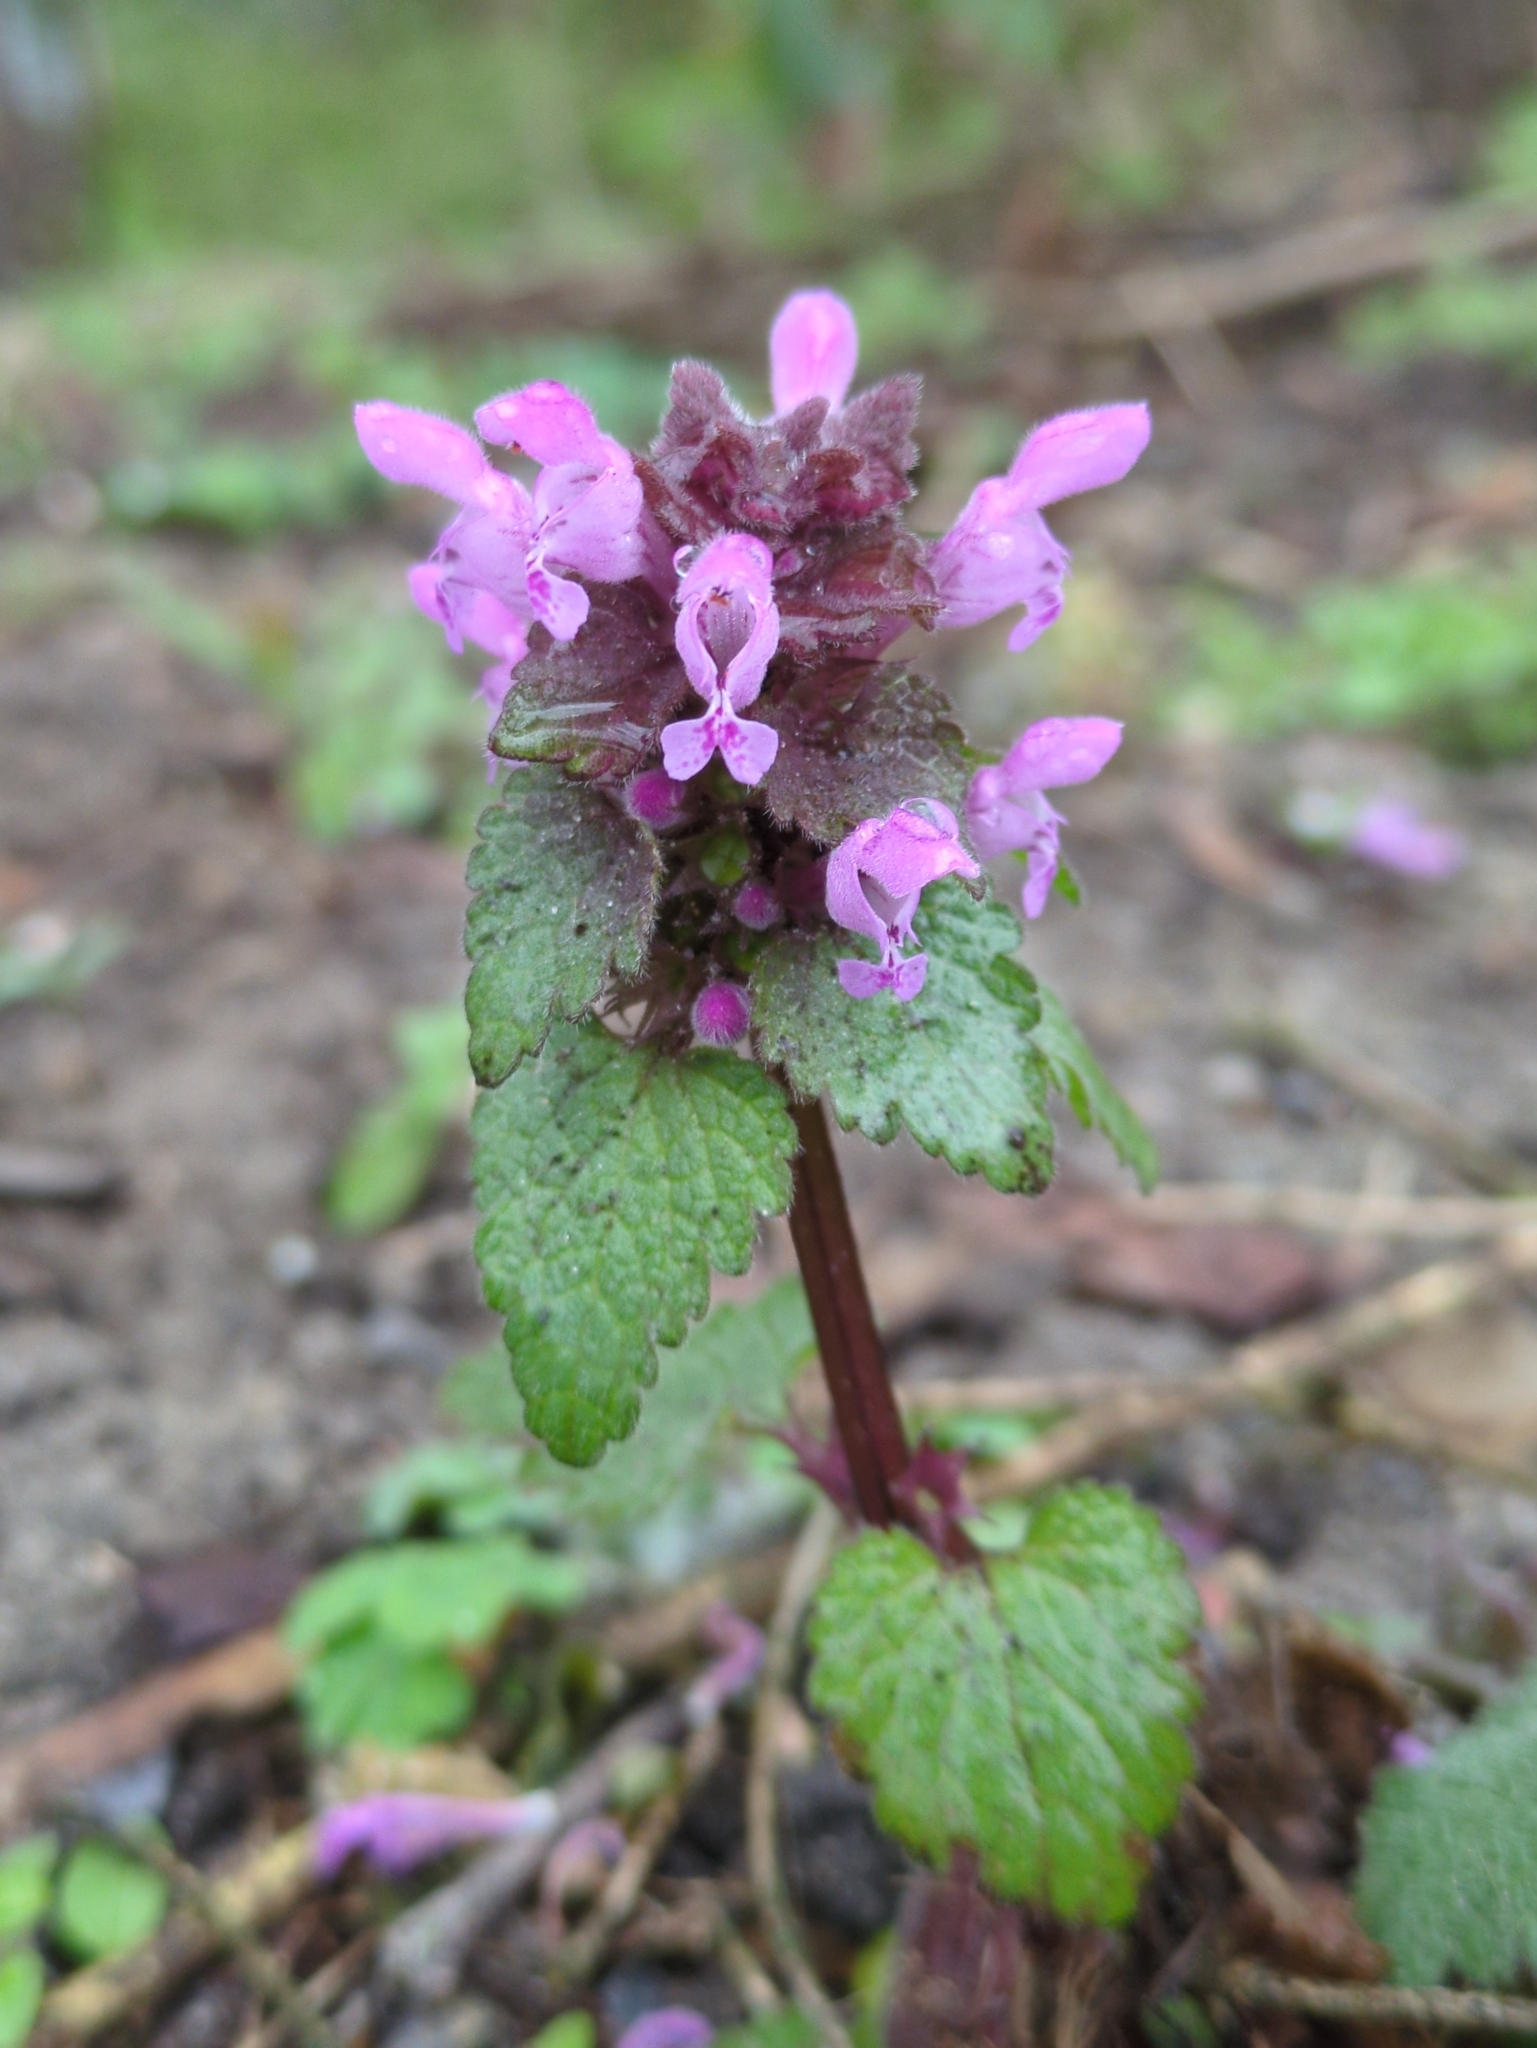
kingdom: Plantae
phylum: Tracheophyta
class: Magnoliopsida
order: Lamiales
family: Lamiaceae
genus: Lamium
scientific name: Lamium purpureum
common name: Red dead-nettle
